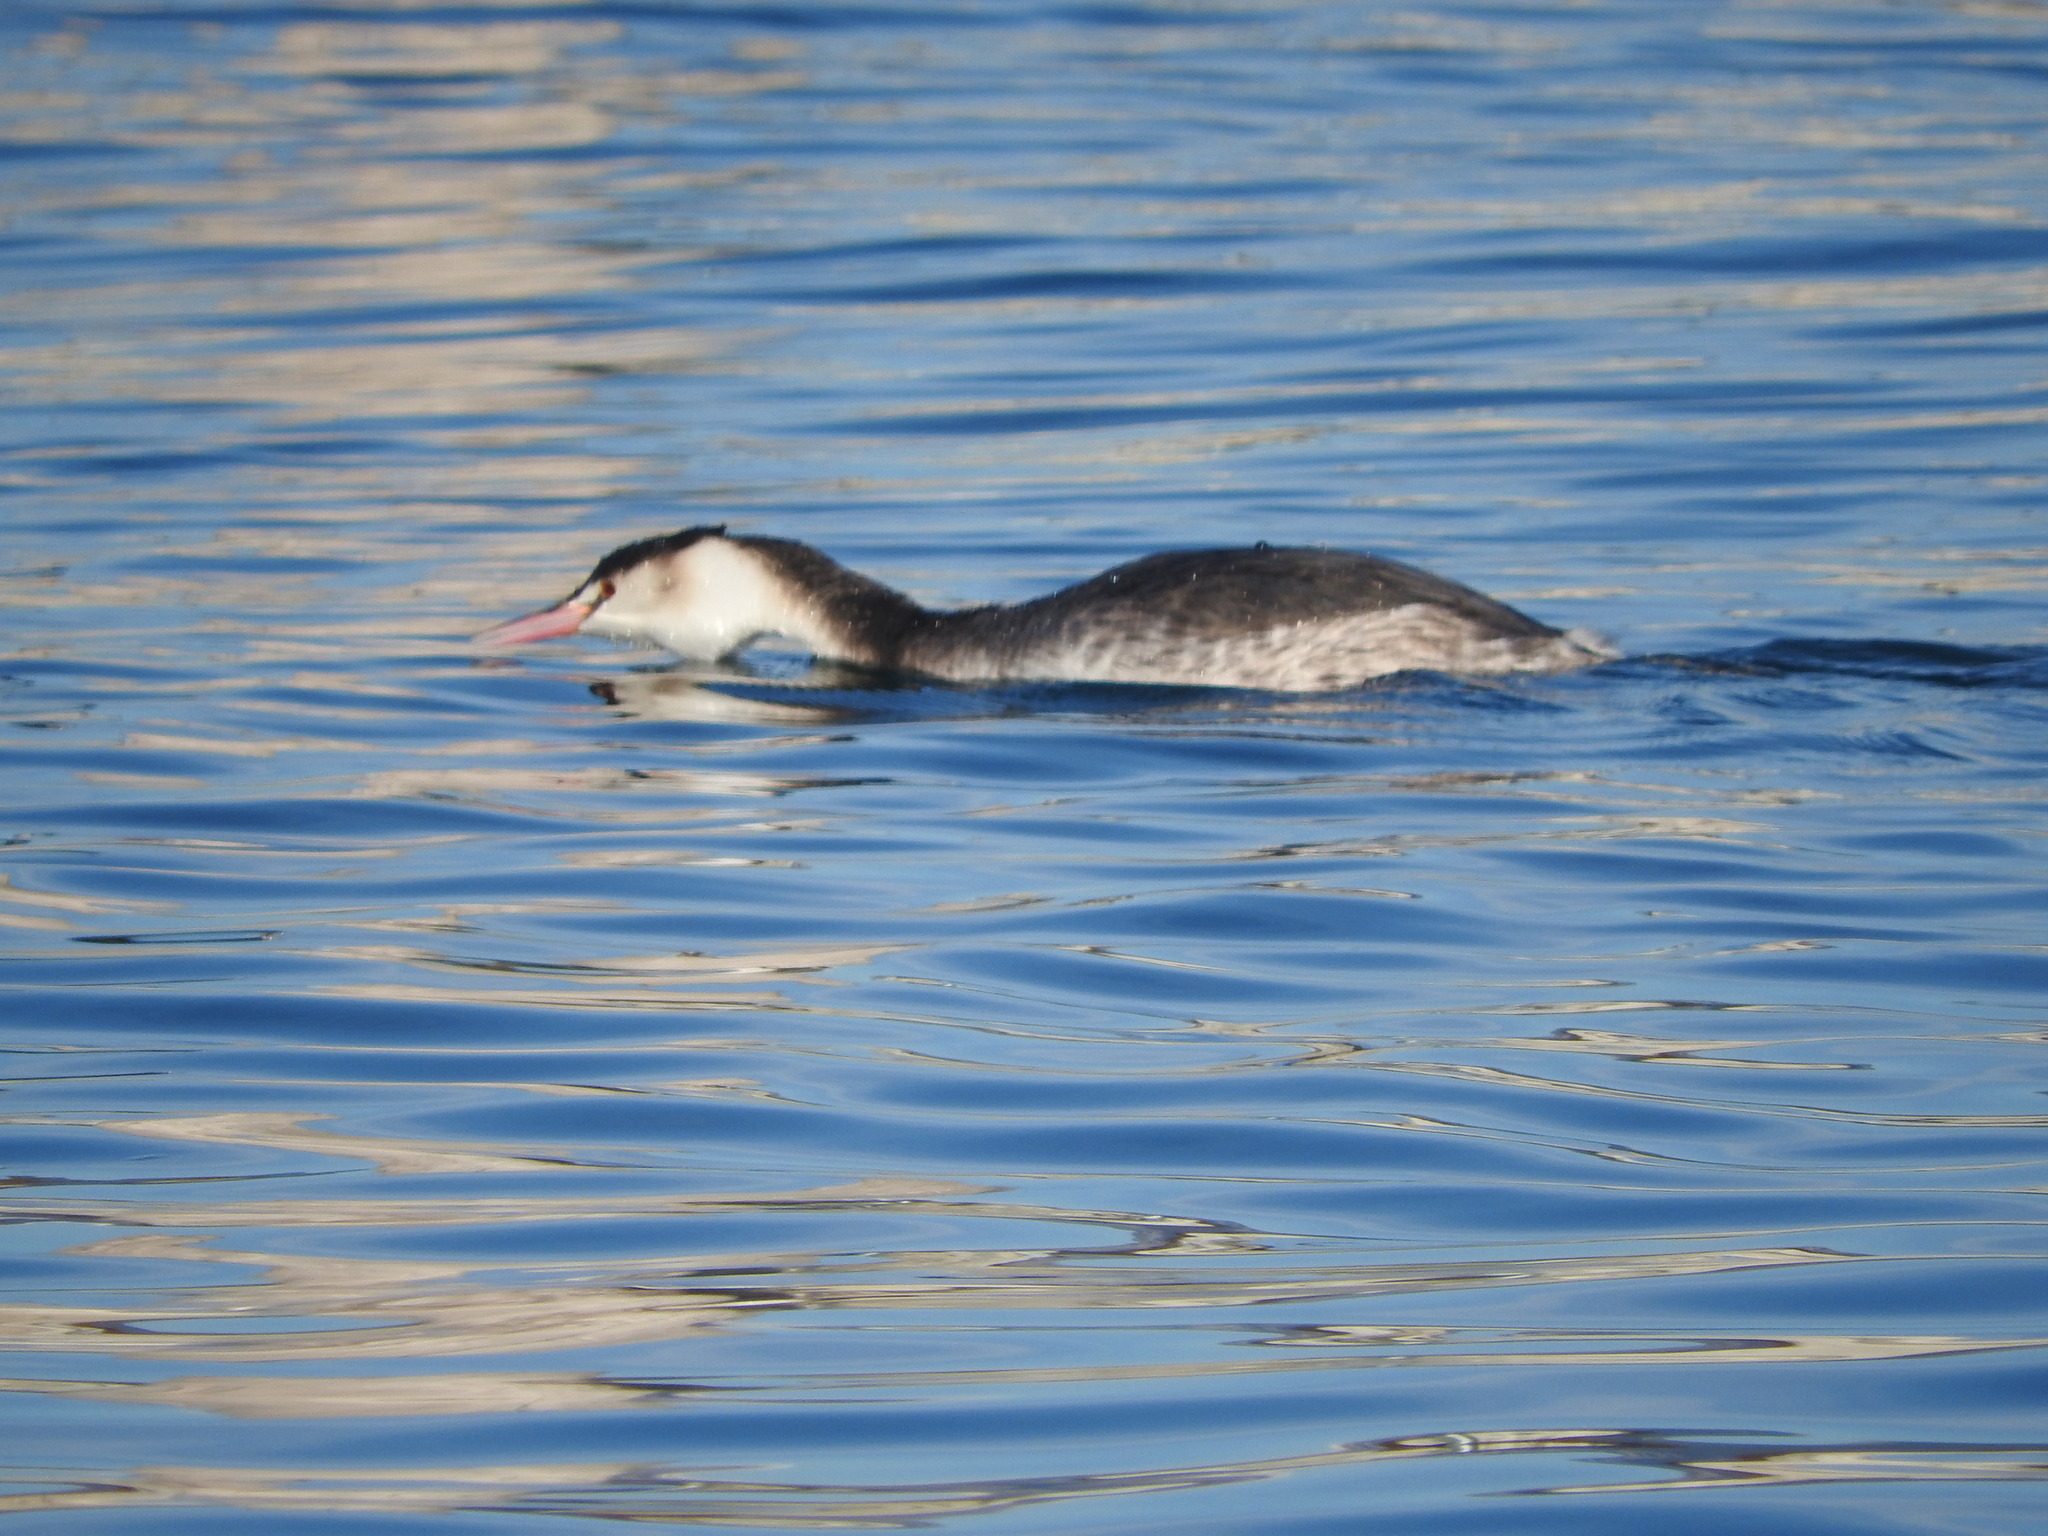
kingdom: Animalia
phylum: Chordata
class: Aves
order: Podicipediformes
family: Podicipedidae
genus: Podiceps
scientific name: Podiceps cristatus
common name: Great crested grebe
